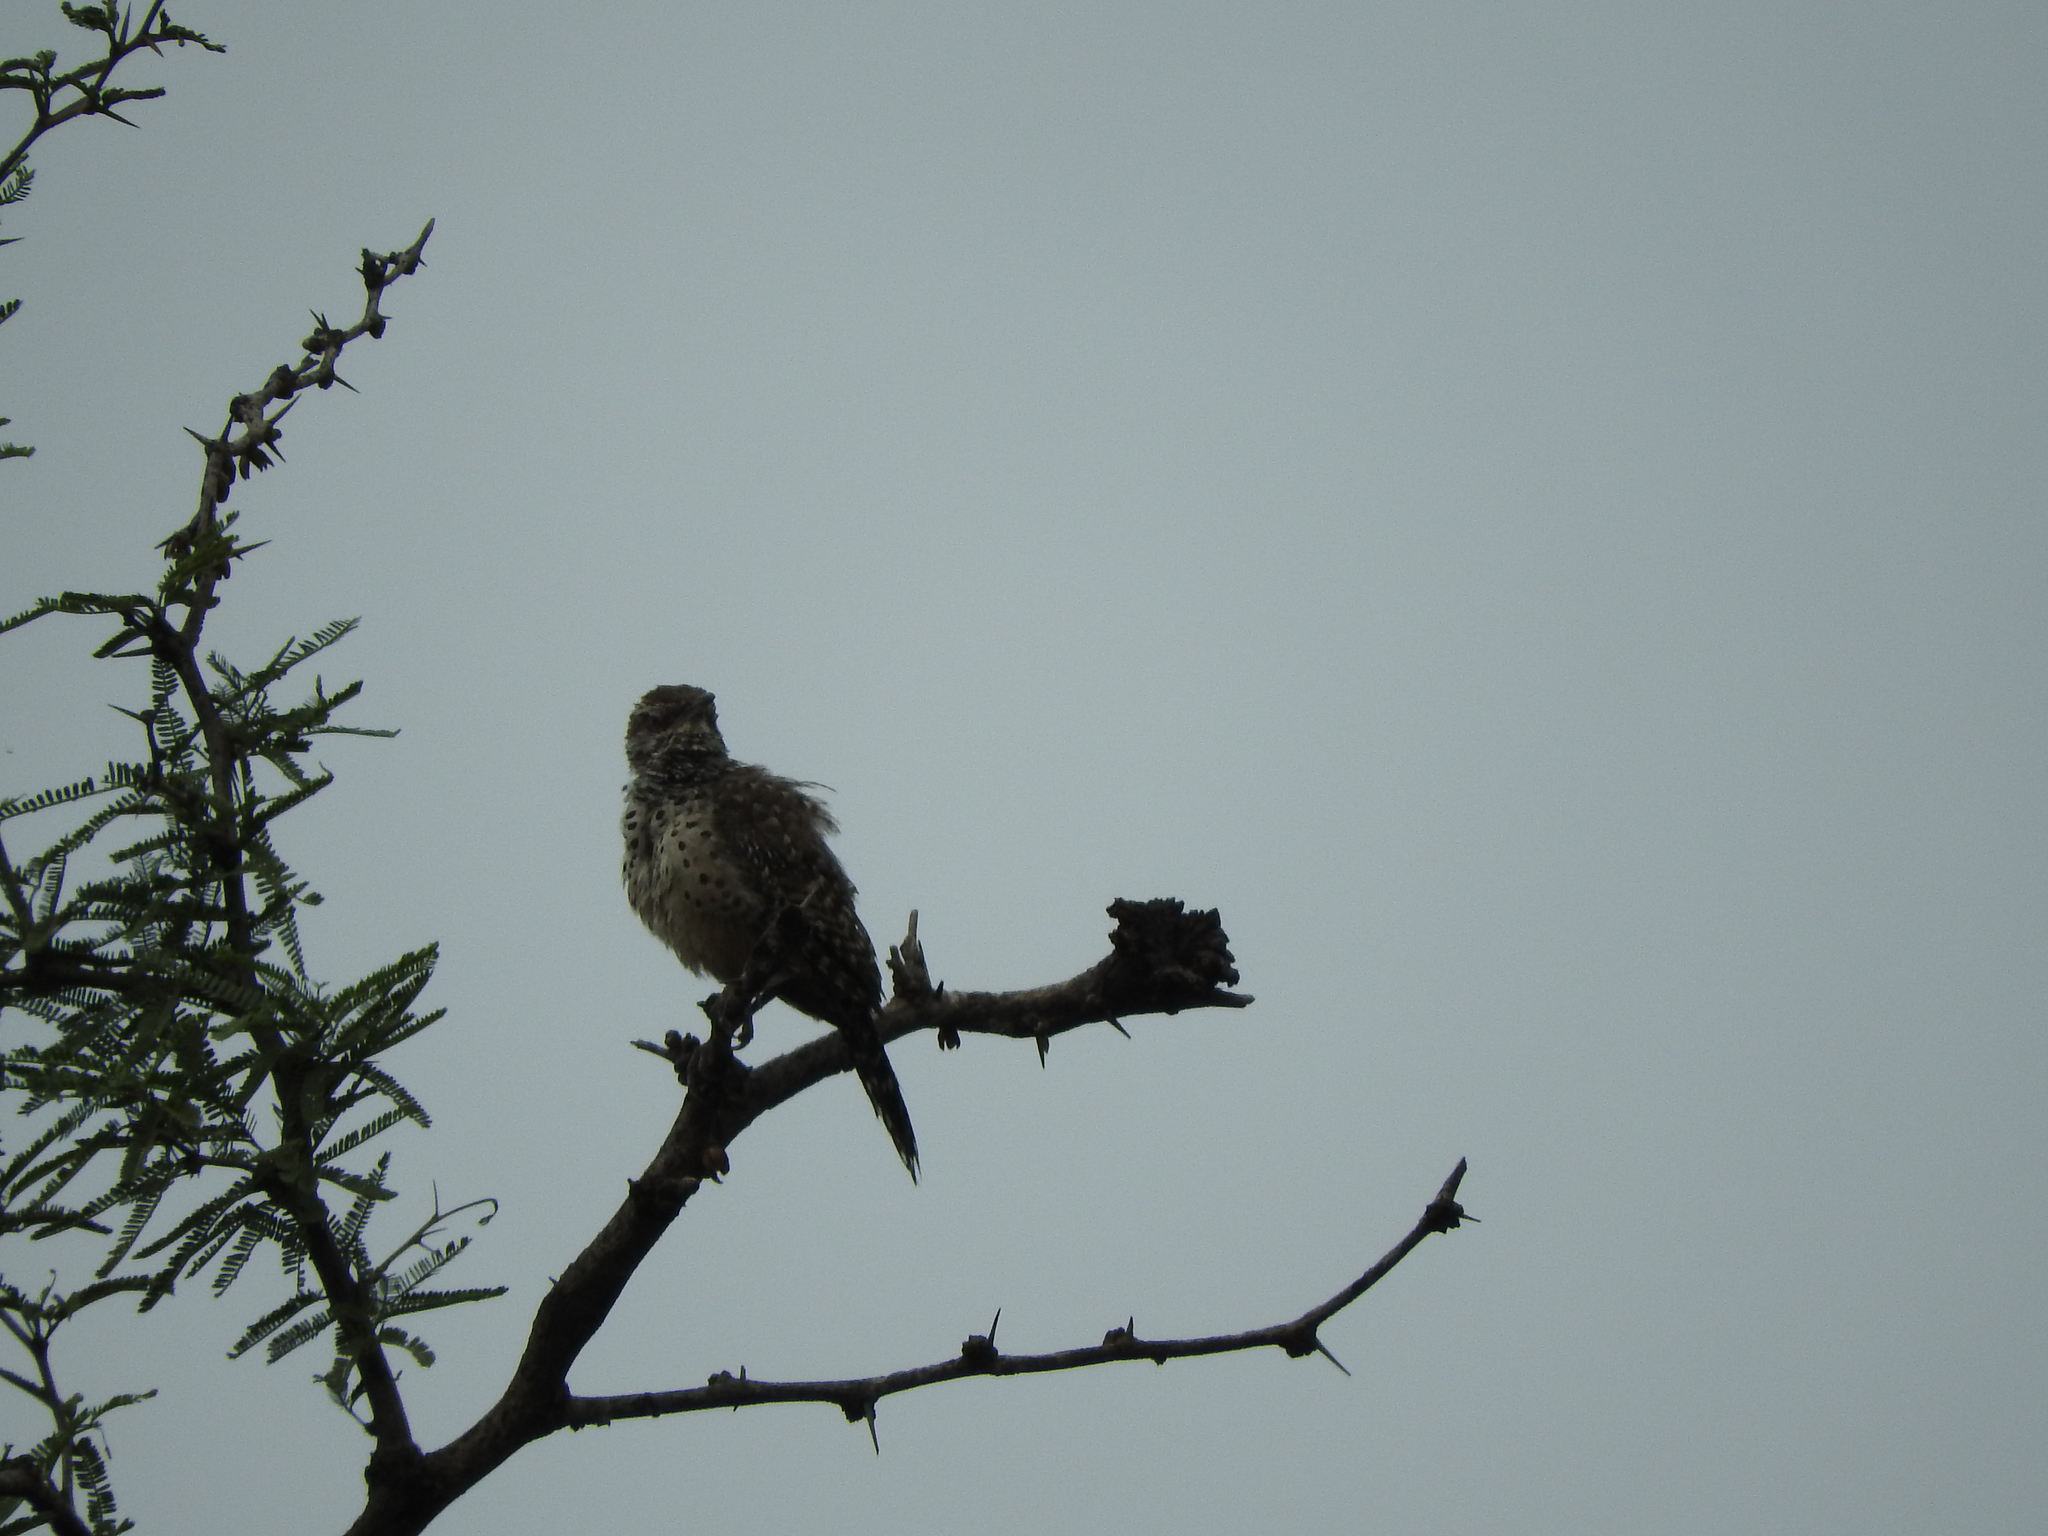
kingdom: Animalia
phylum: Chordata
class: Aves
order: Passeriformes
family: Troglodytidae
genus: Campylorhynchus
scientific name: Campylorhynchus brunneicapillus
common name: Cactus wren
